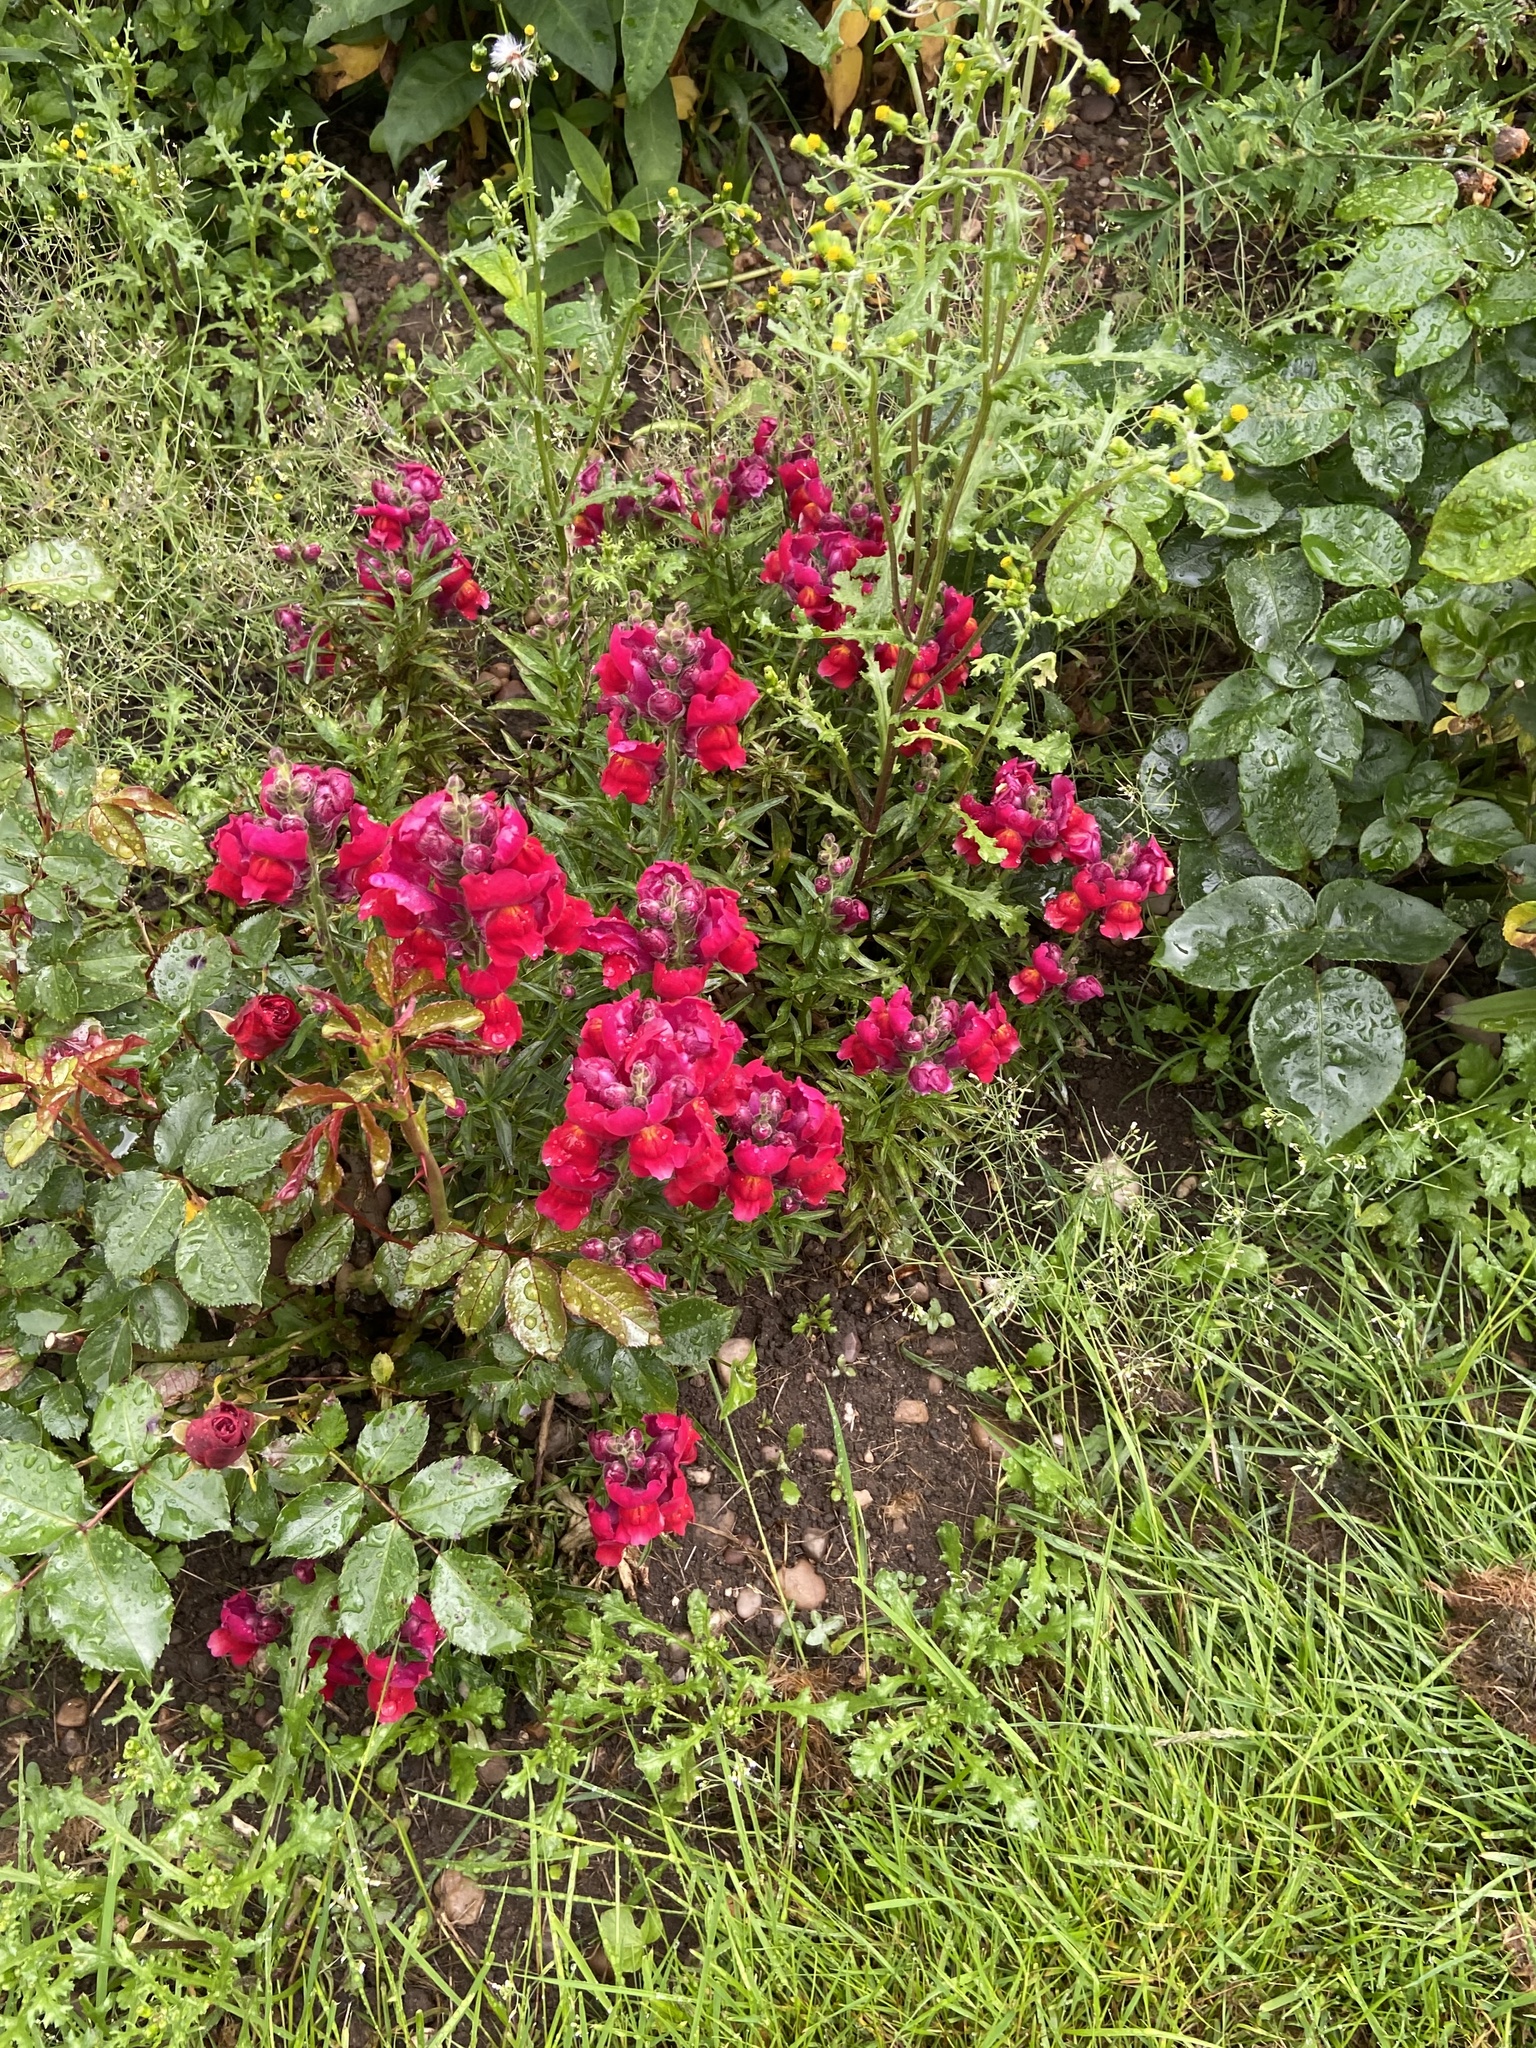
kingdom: Plantae
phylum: Tracheophyta
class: Magnoliopsida
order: Lamiales
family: Plantaginaceae
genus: Antirrhinum
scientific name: Antirrhinum majus
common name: Snapdragon
